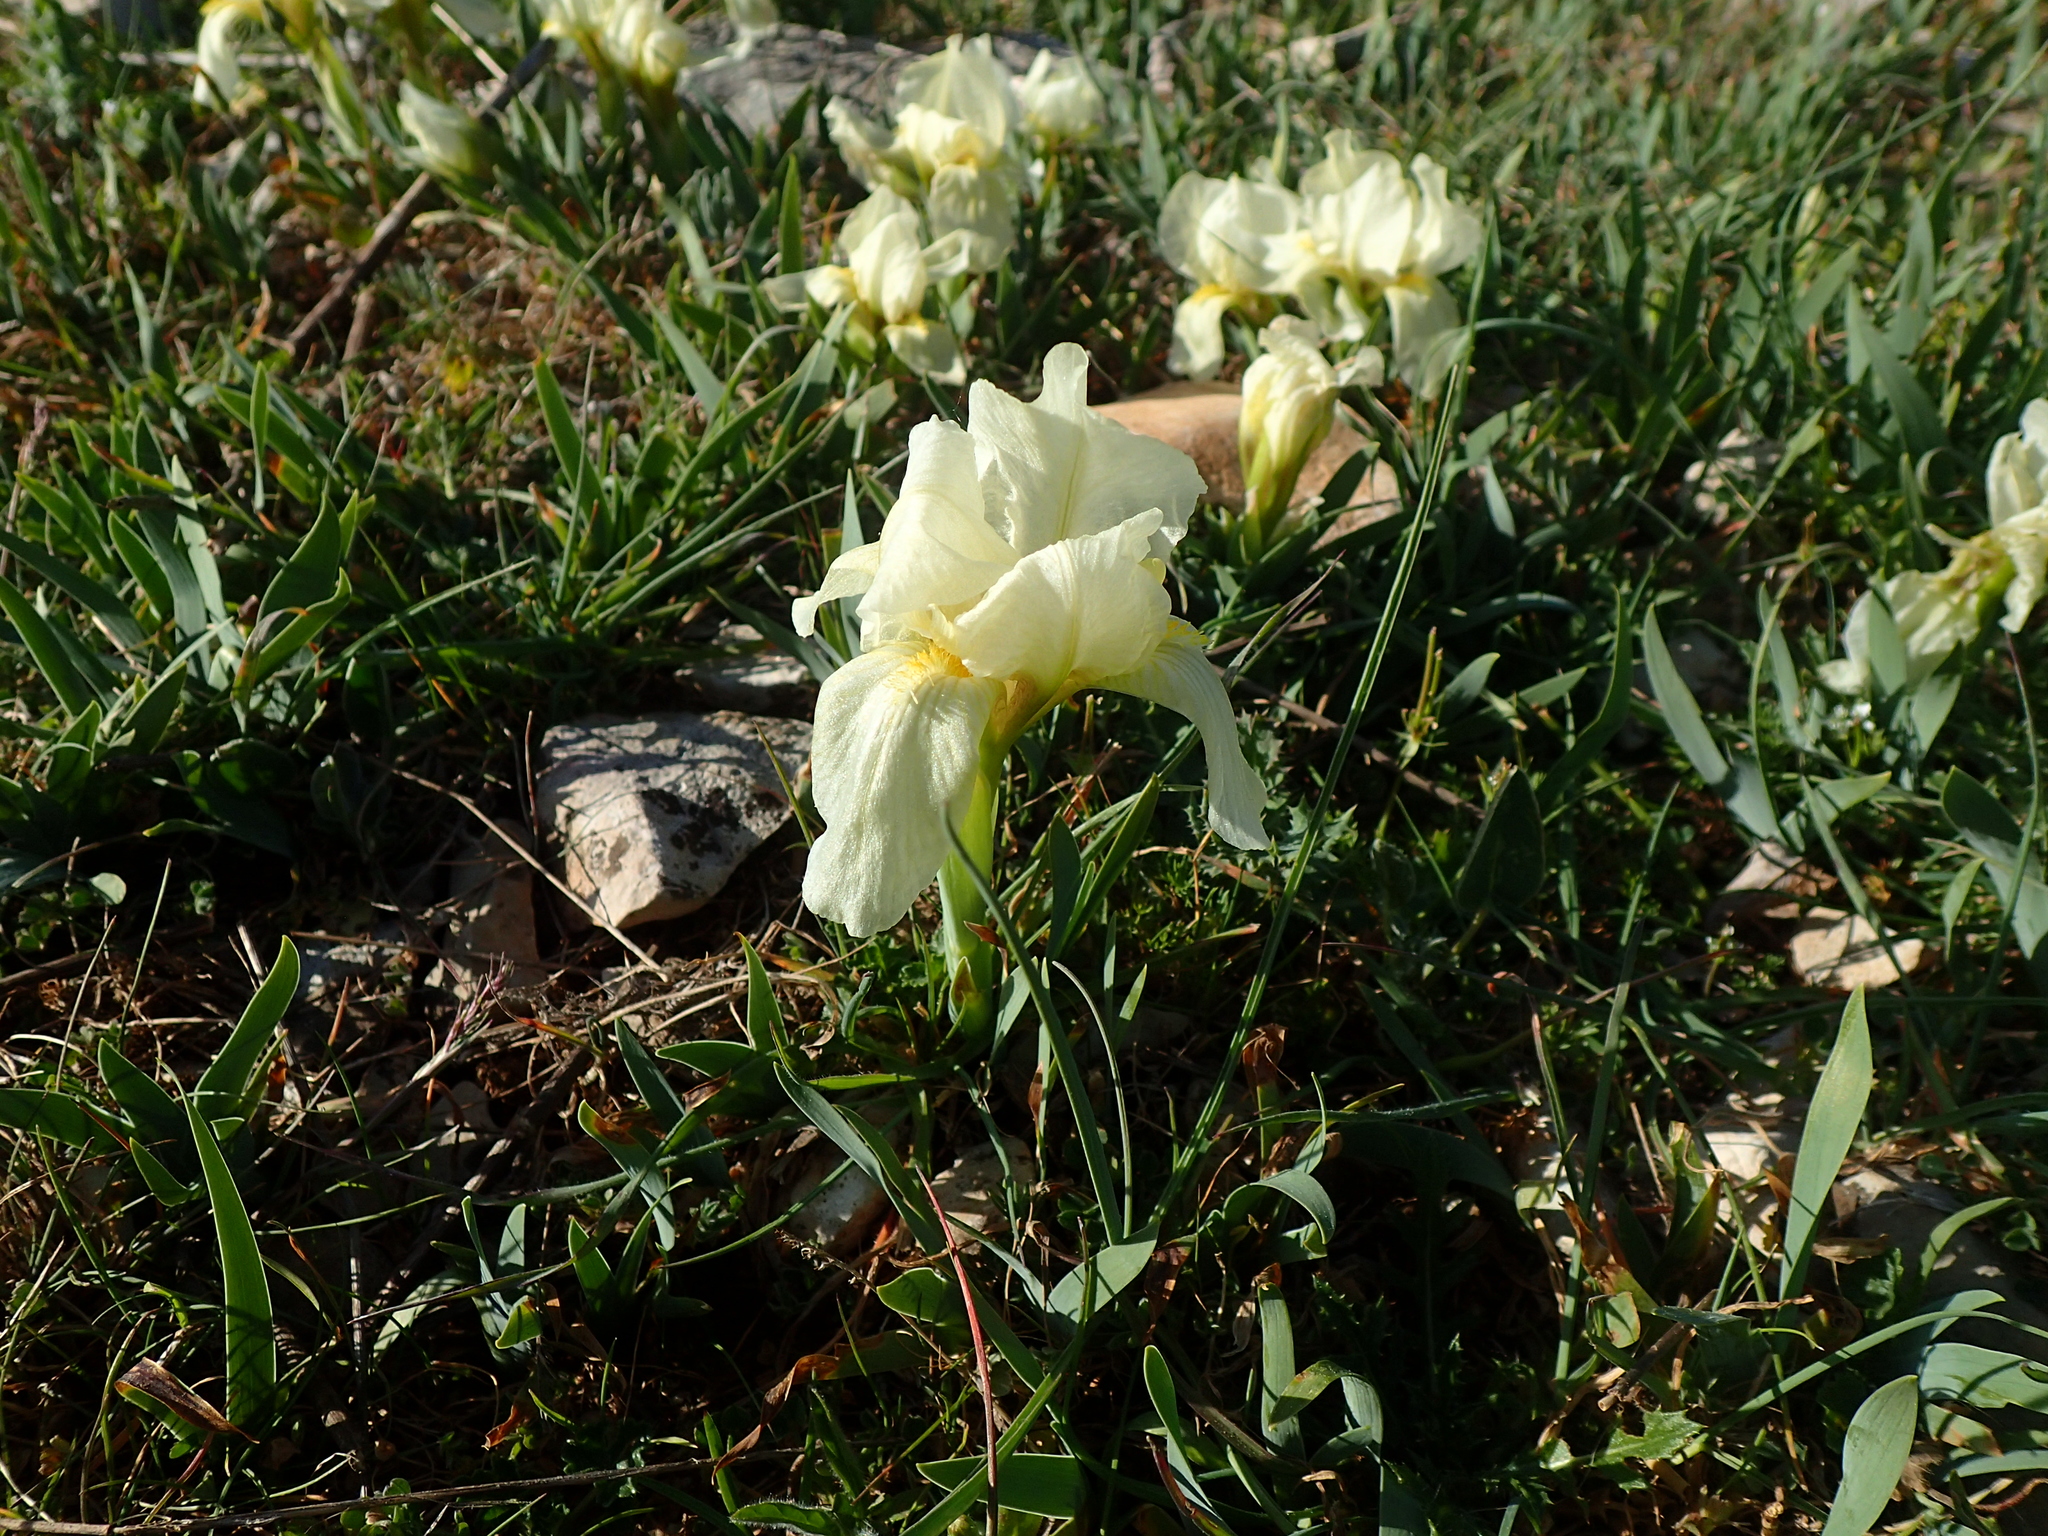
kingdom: Plantae
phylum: Tracheophyta
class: Liliopsida
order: Asparagales
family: Iridaceae
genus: Iris
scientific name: Iris lutescens
